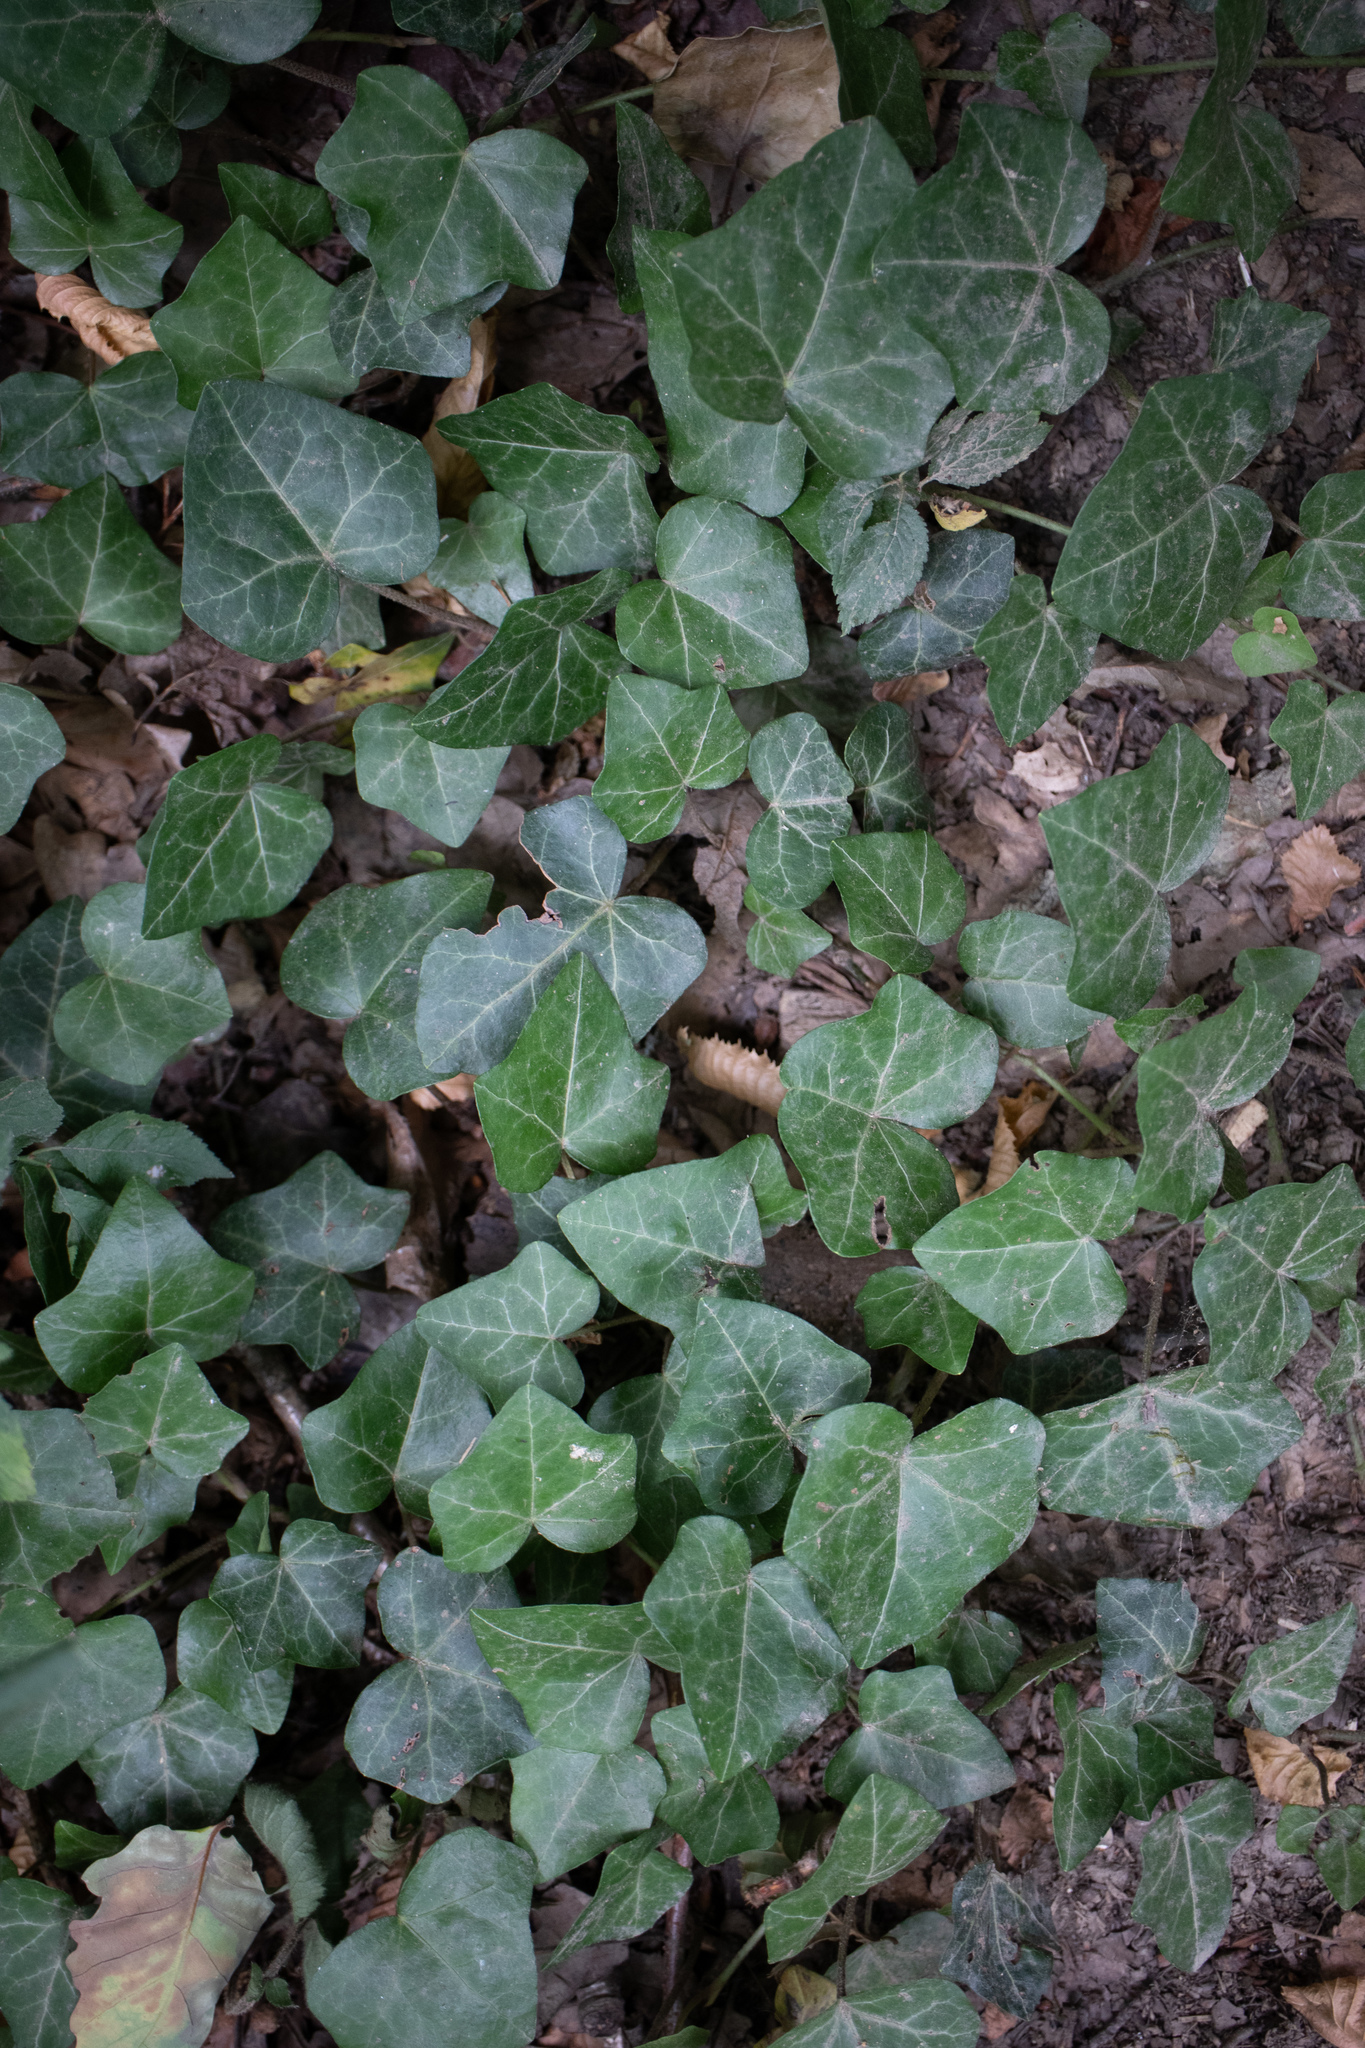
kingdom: Plantae
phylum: Tracheophyta
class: Magnoliopsida
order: Apiales
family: Araliaceae
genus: Hedera
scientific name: Hedera helix
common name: Ivy
